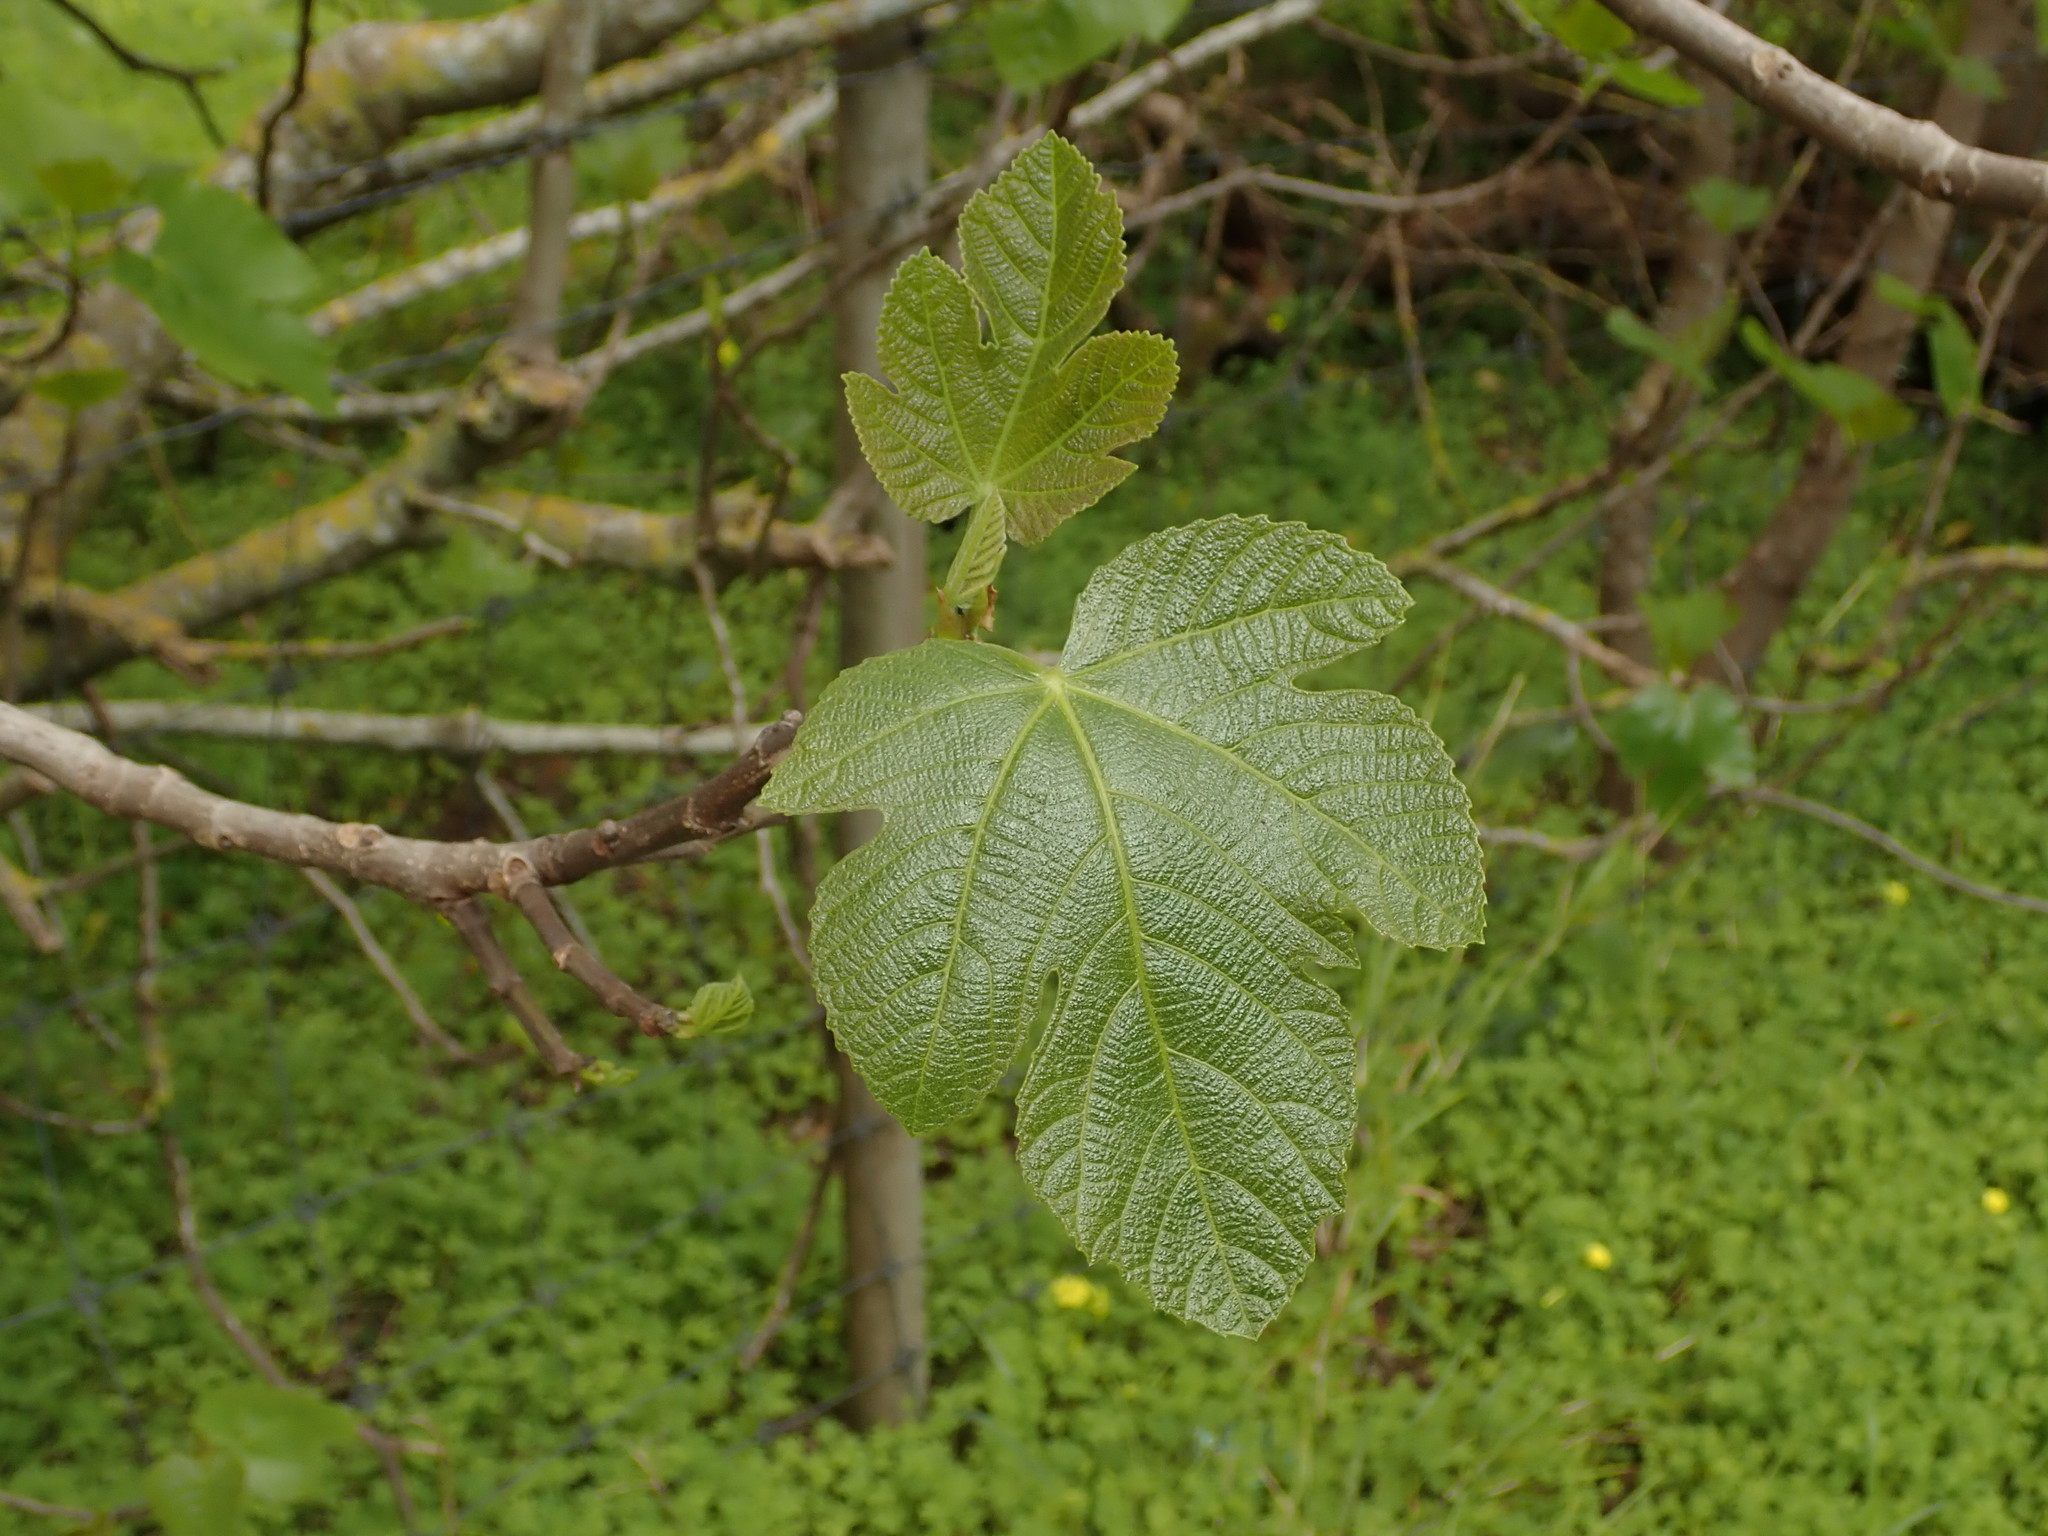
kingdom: Plantae
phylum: Tracheophyta
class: Magnoliopsida
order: Rosales
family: Moraceae
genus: Ficus
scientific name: Ficus carica
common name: Fig
